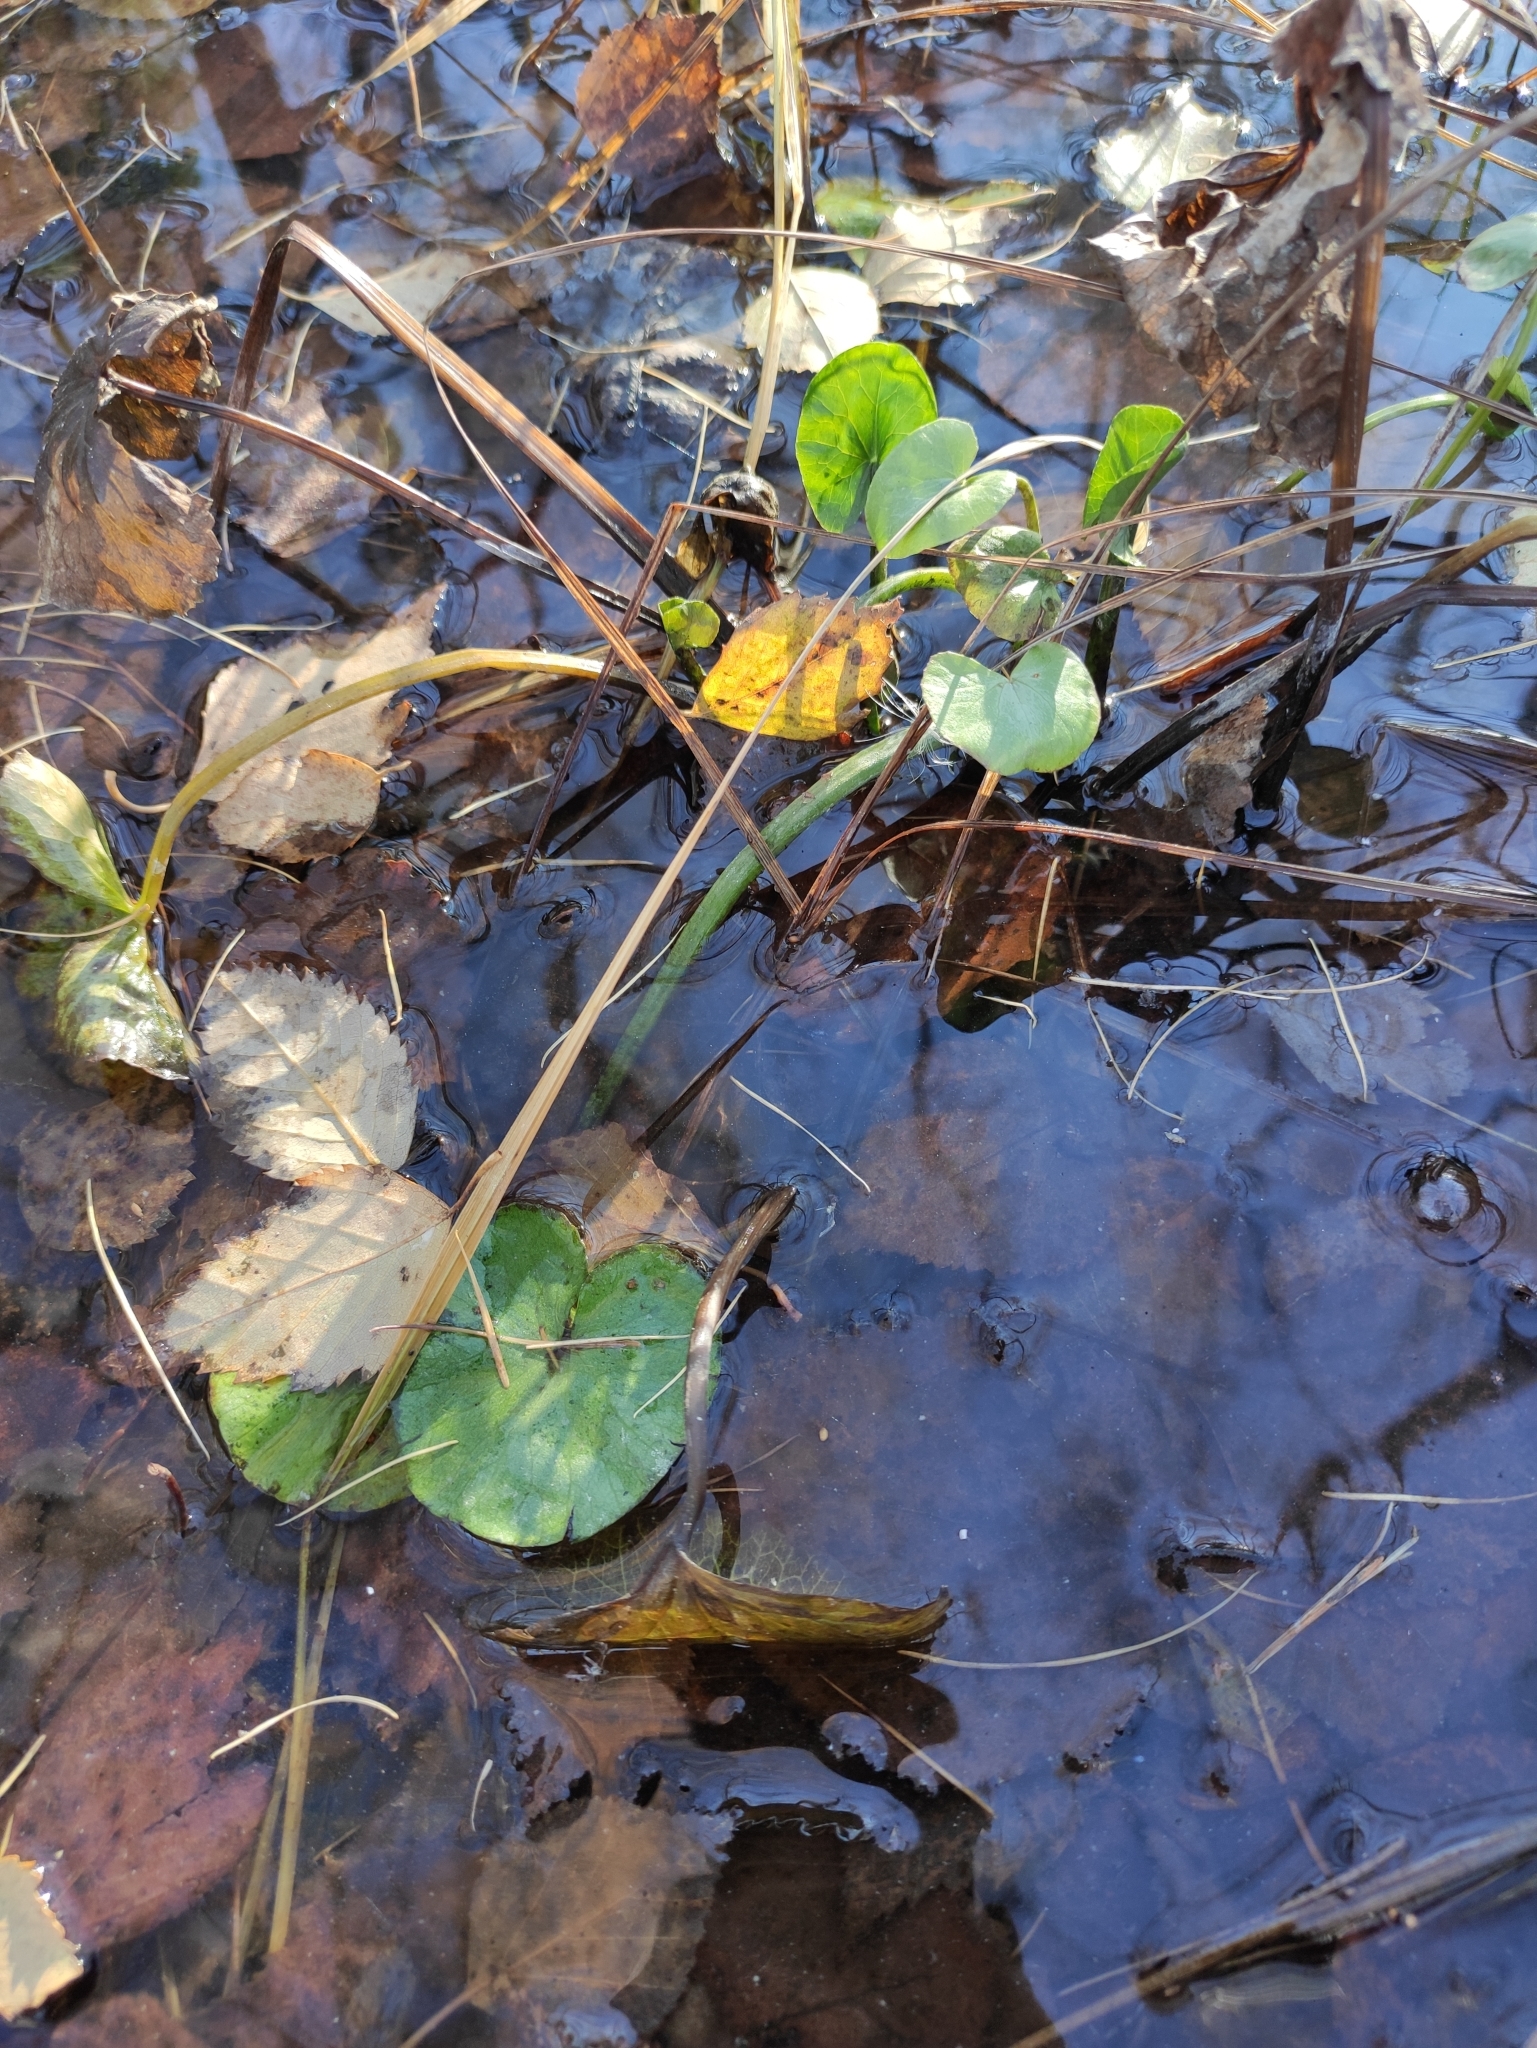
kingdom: Plantae
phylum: Tracheophyta
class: Magnoliopsida
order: Ranunculales
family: Ranunculaceae
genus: Caltha
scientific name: Caltha palustris
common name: Marsh marigold
